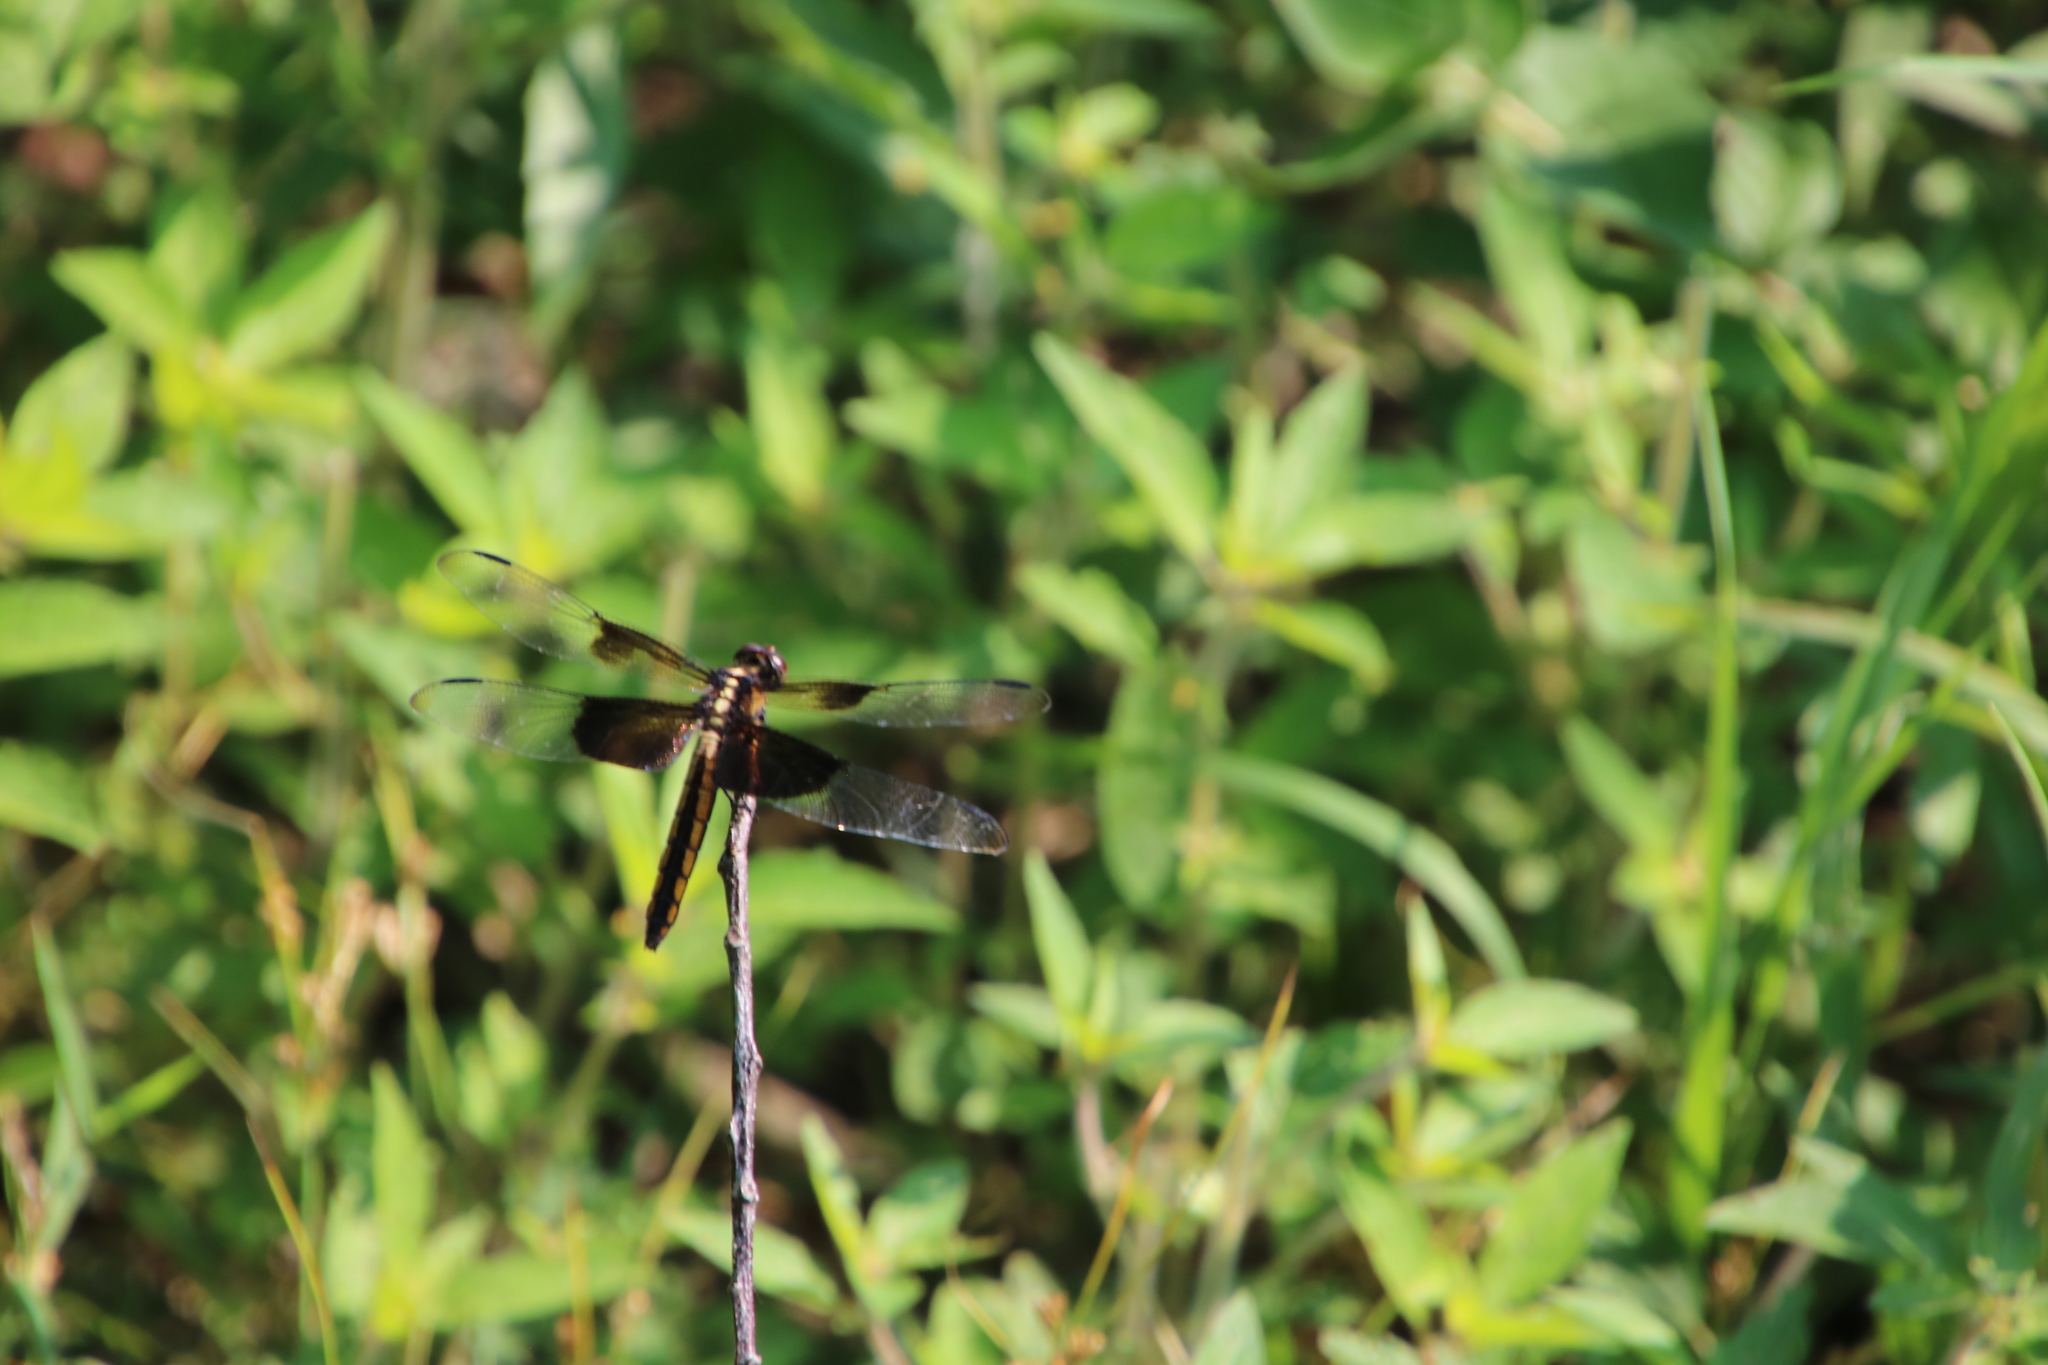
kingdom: Animalia
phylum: Arthropoda
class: Insecta
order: Odonata
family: Libellulidae
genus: Libellula
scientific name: Libellula luctuosa
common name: Widow skimmer
